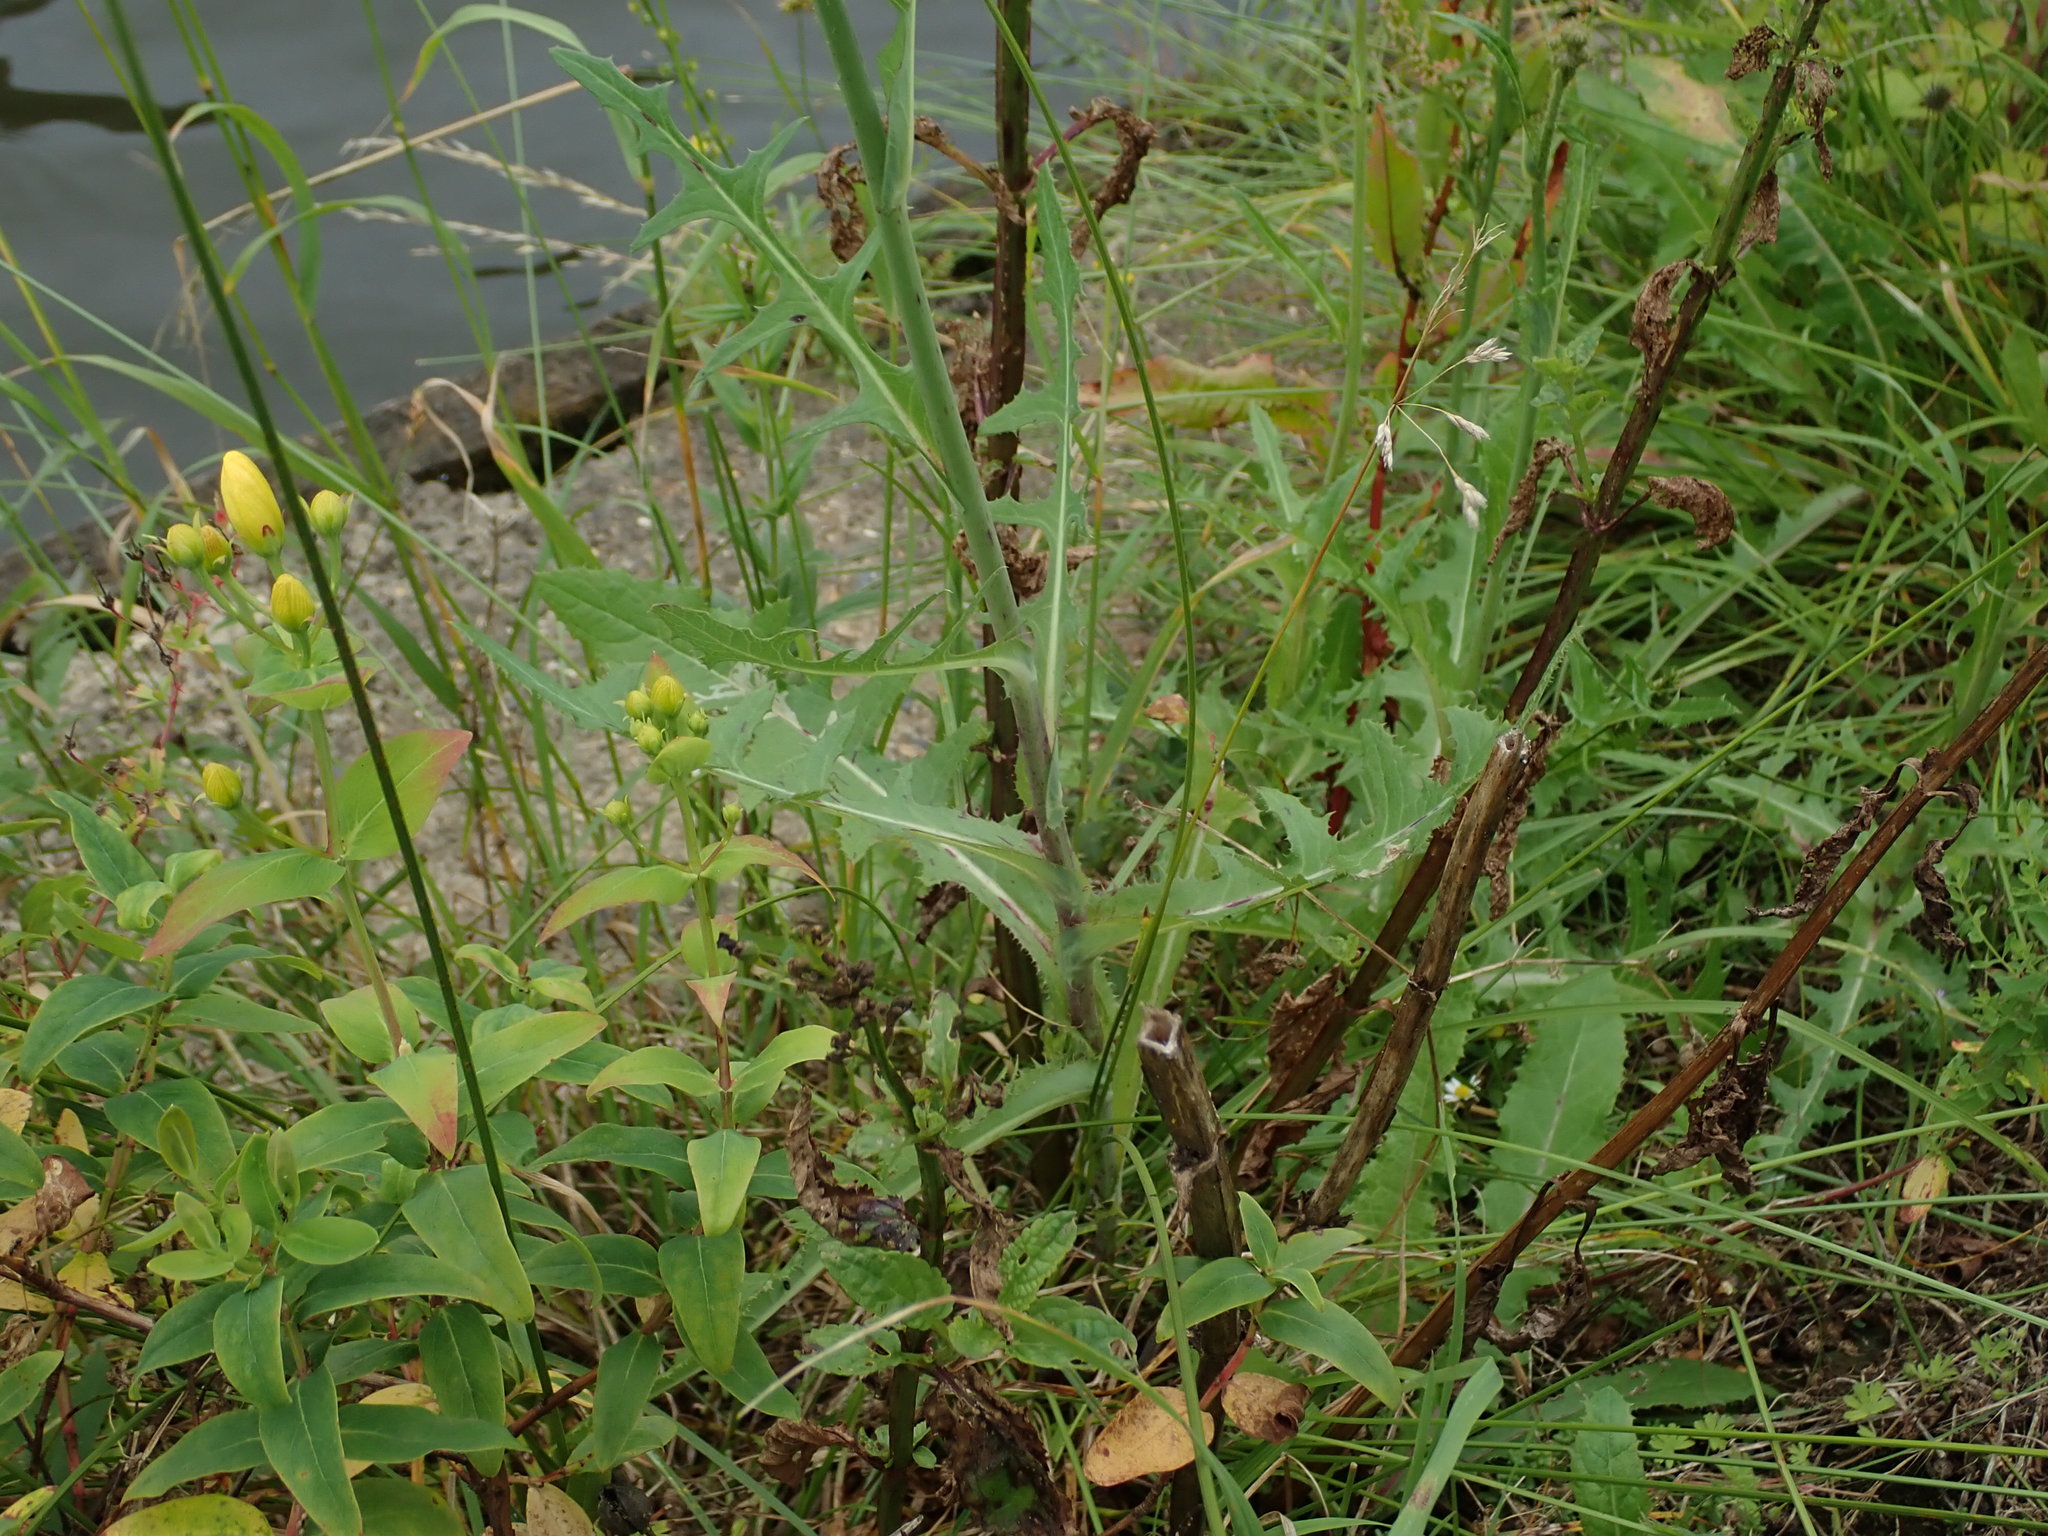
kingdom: Plantae
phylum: Tracheophyta
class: Magnoliopsida
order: Asterales
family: Asteraceae
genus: Sonchus
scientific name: Sonchus arvensis
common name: Perennial sow-thistle
